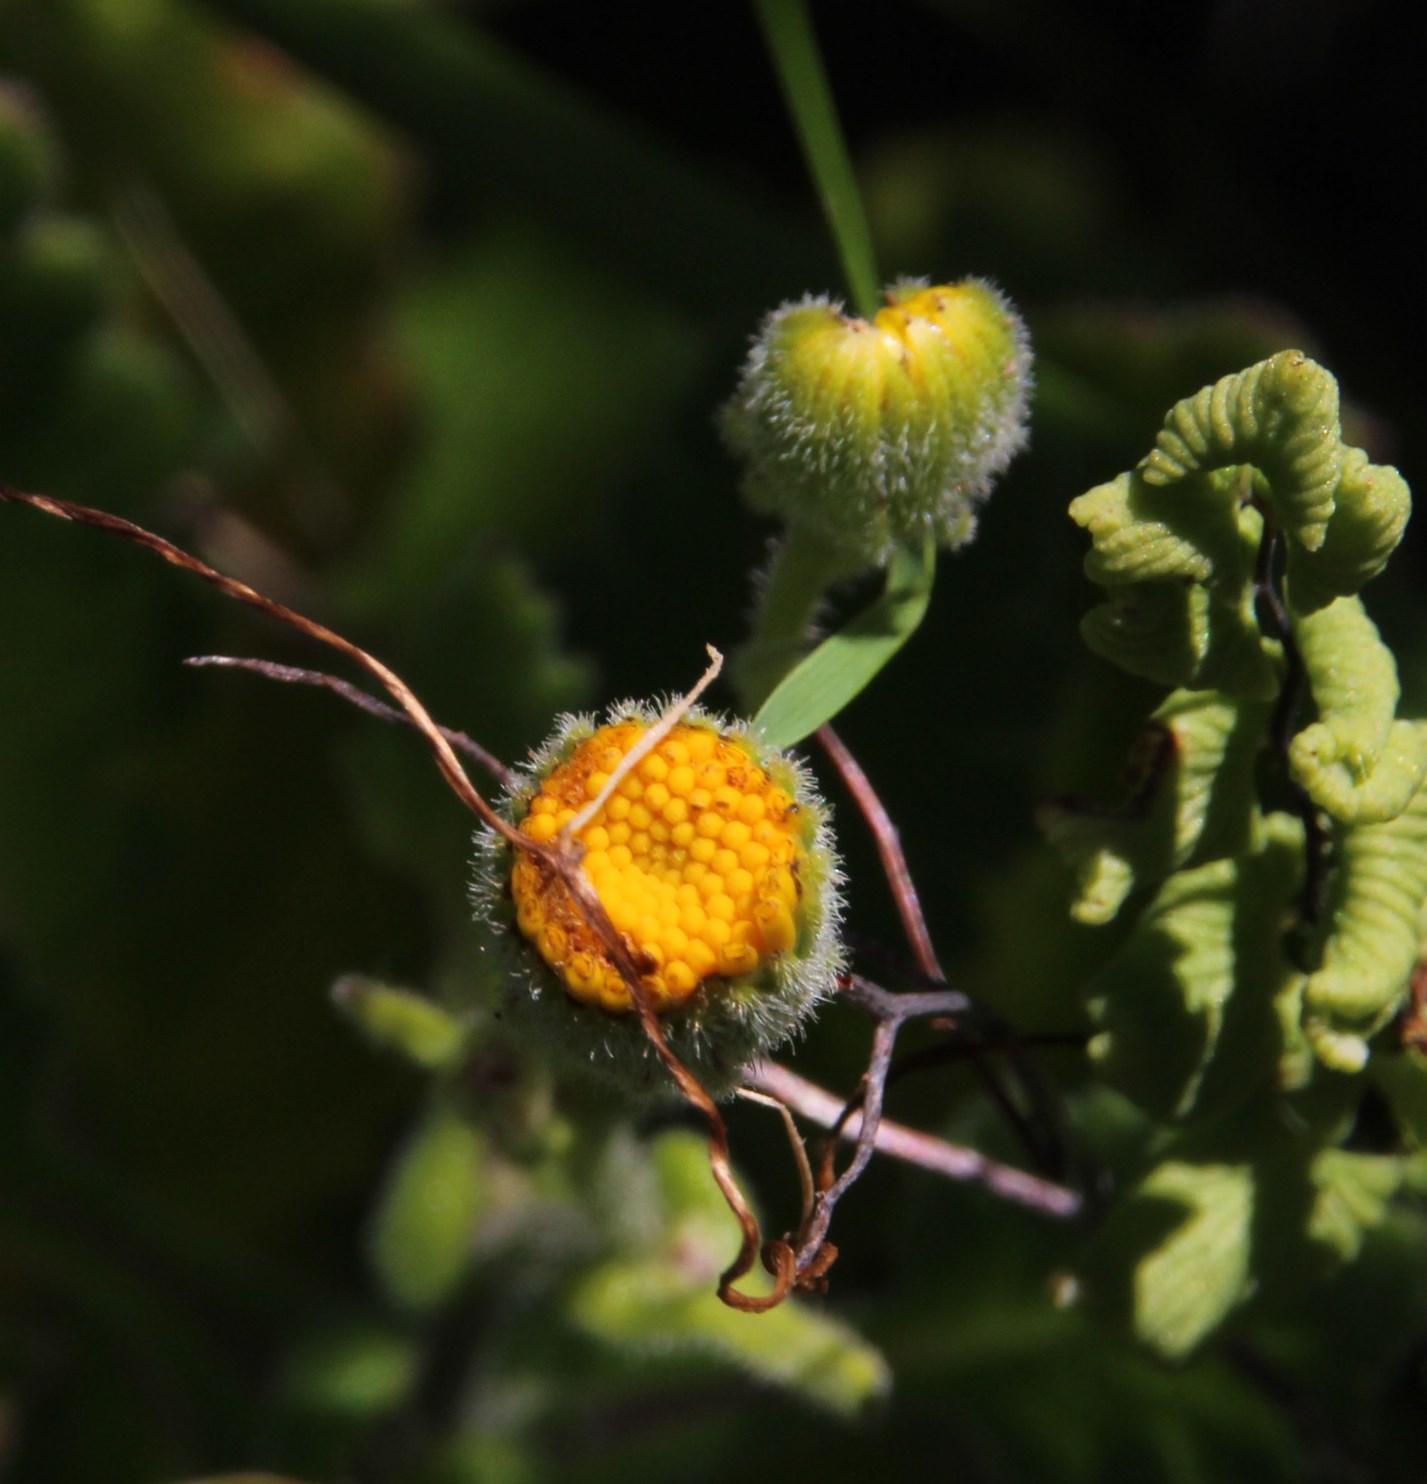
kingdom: Plantae
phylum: Tracheophyta
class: Magnoliopsida
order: Asterales
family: Asteraceae
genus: Senecio
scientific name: Senecio planiflorus
